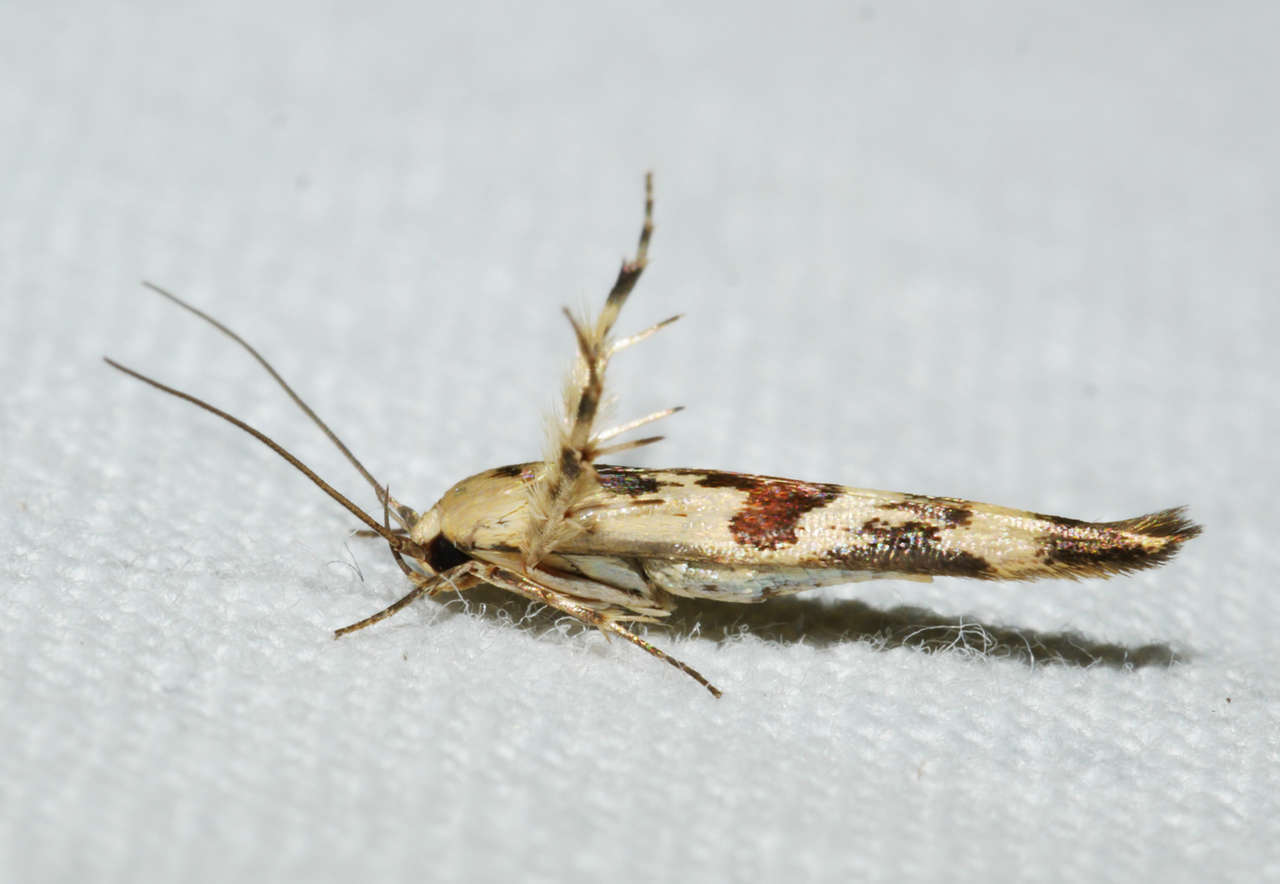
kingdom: Animalia
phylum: Arthropoda
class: Insecta
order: Lepidoptera
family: Stathmopodidae
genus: Stathmopoda
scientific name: Stathmopoda melanochra
